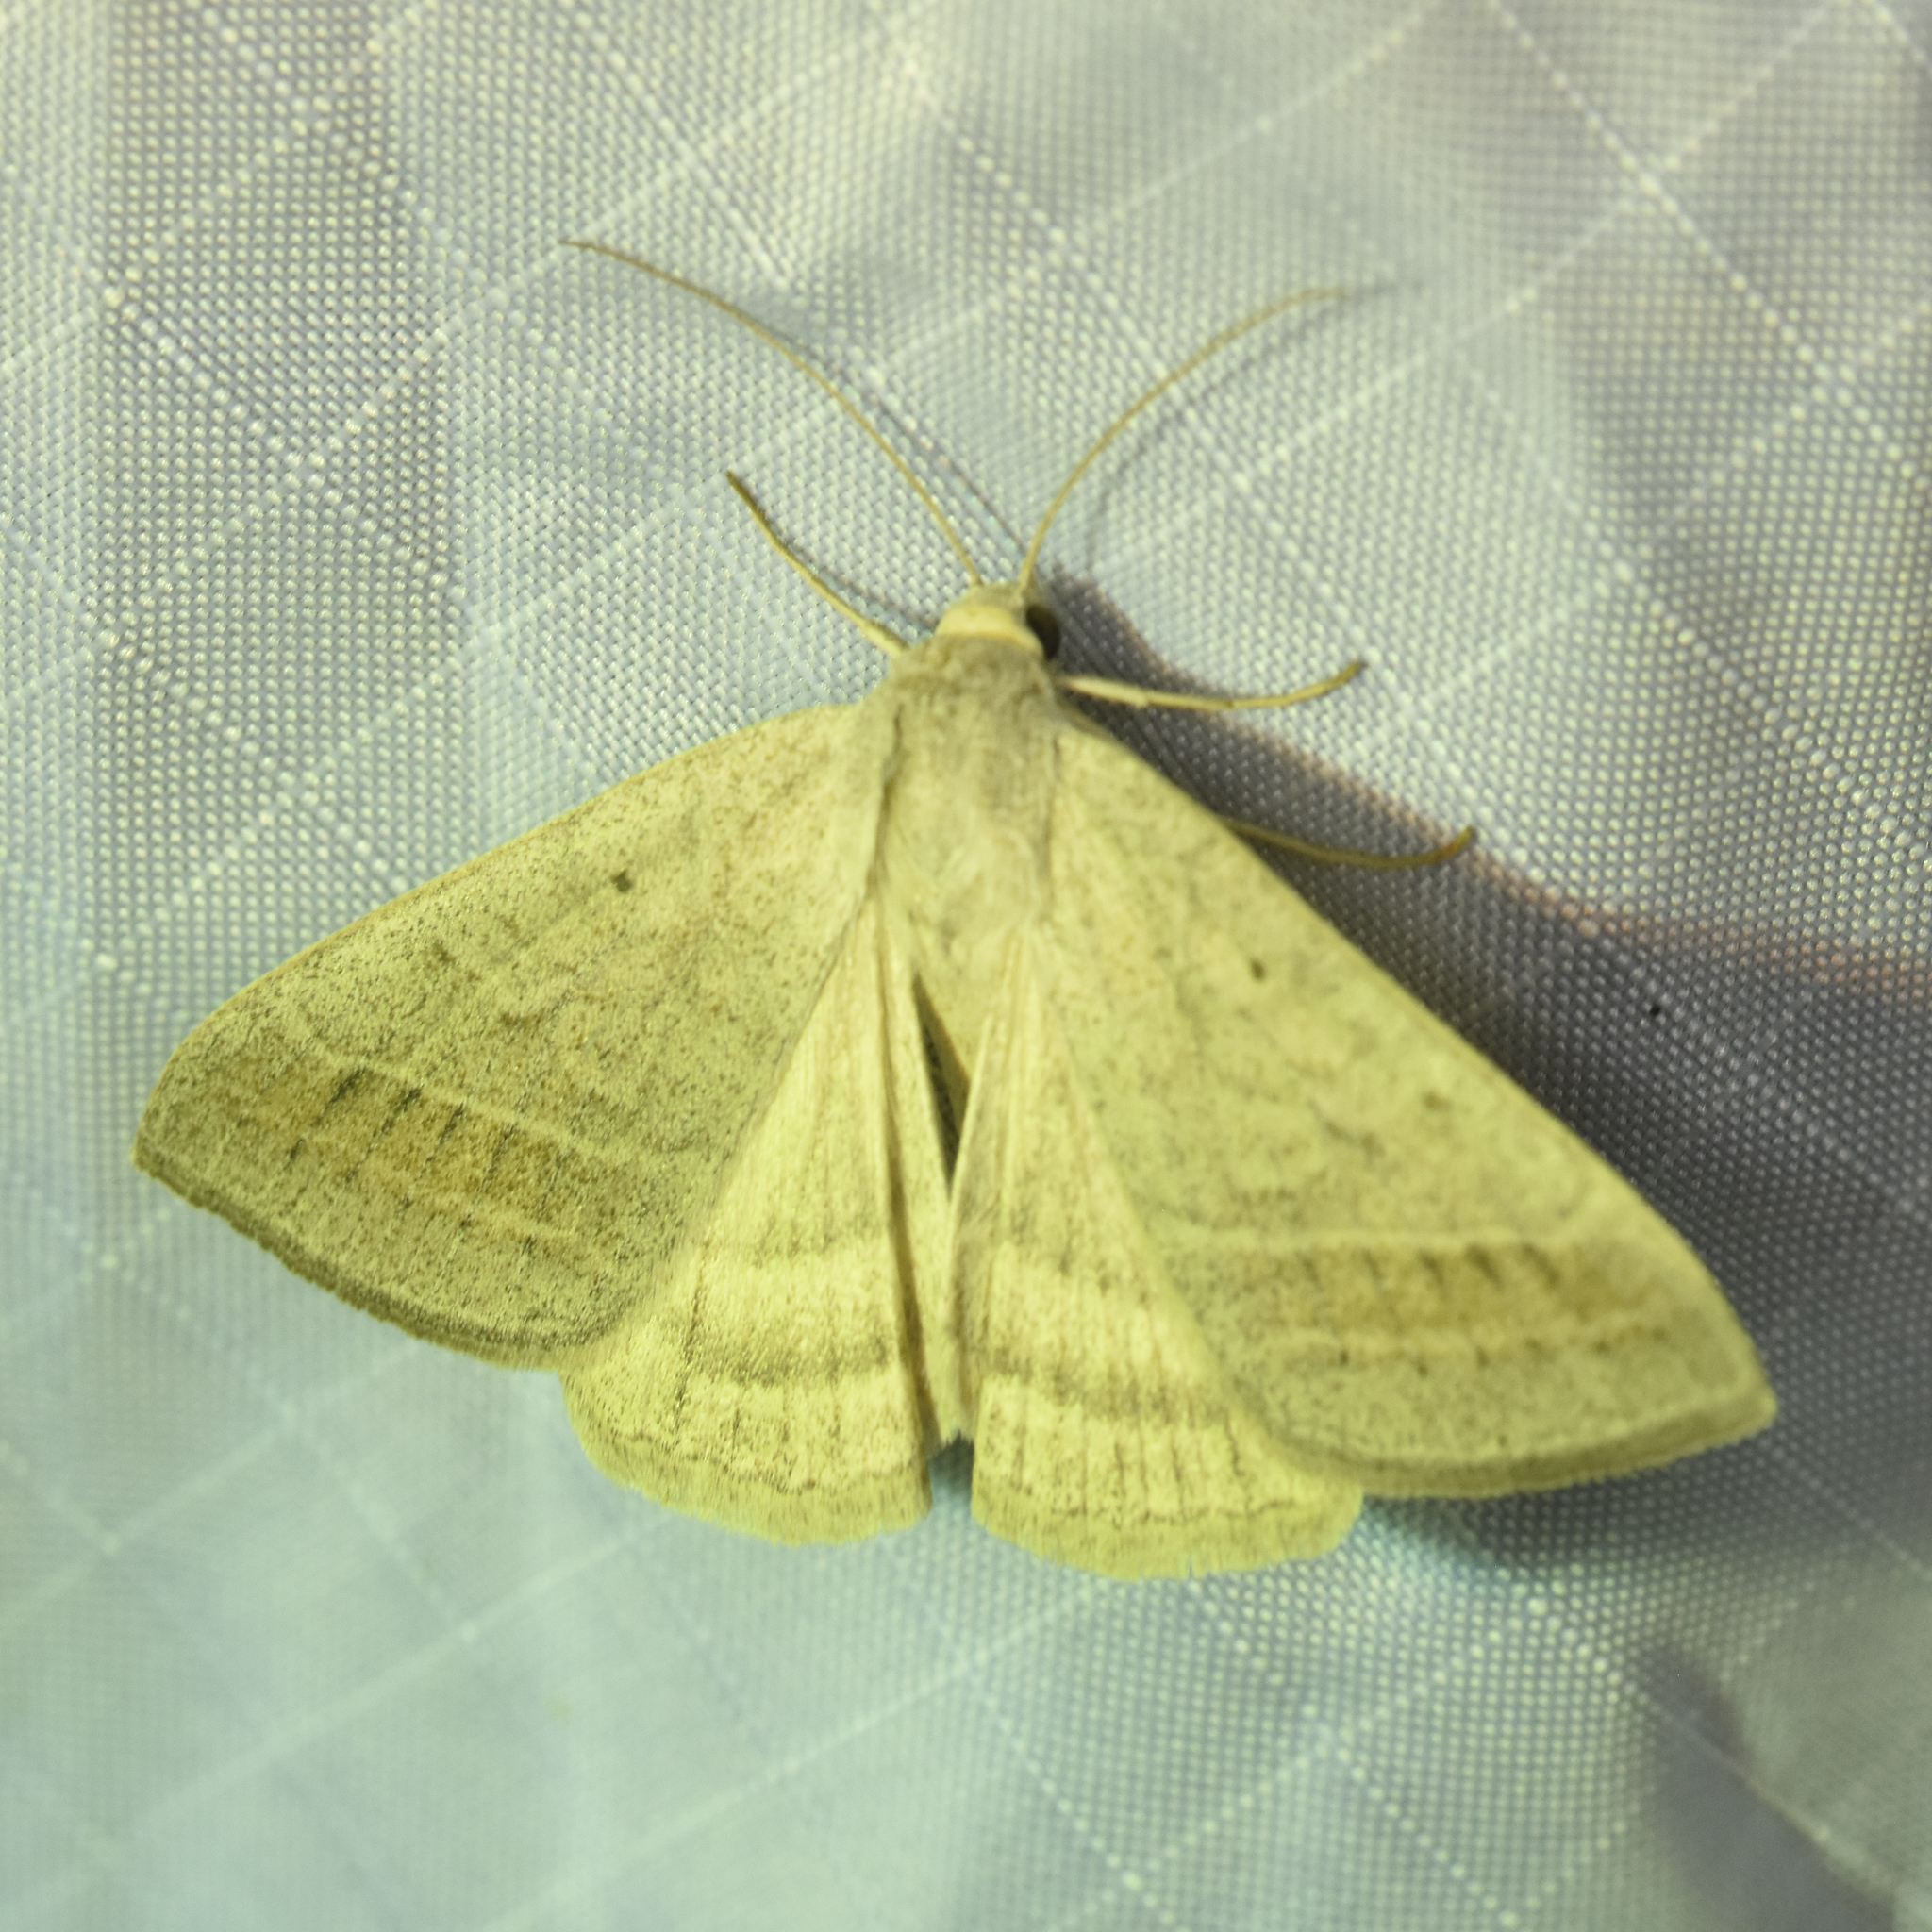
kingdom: Animalia
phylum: Arthropoda
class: Insecta
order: Lepidoptera
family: Erebidae
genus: Caenurgia
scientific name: Caenurgia togataria
